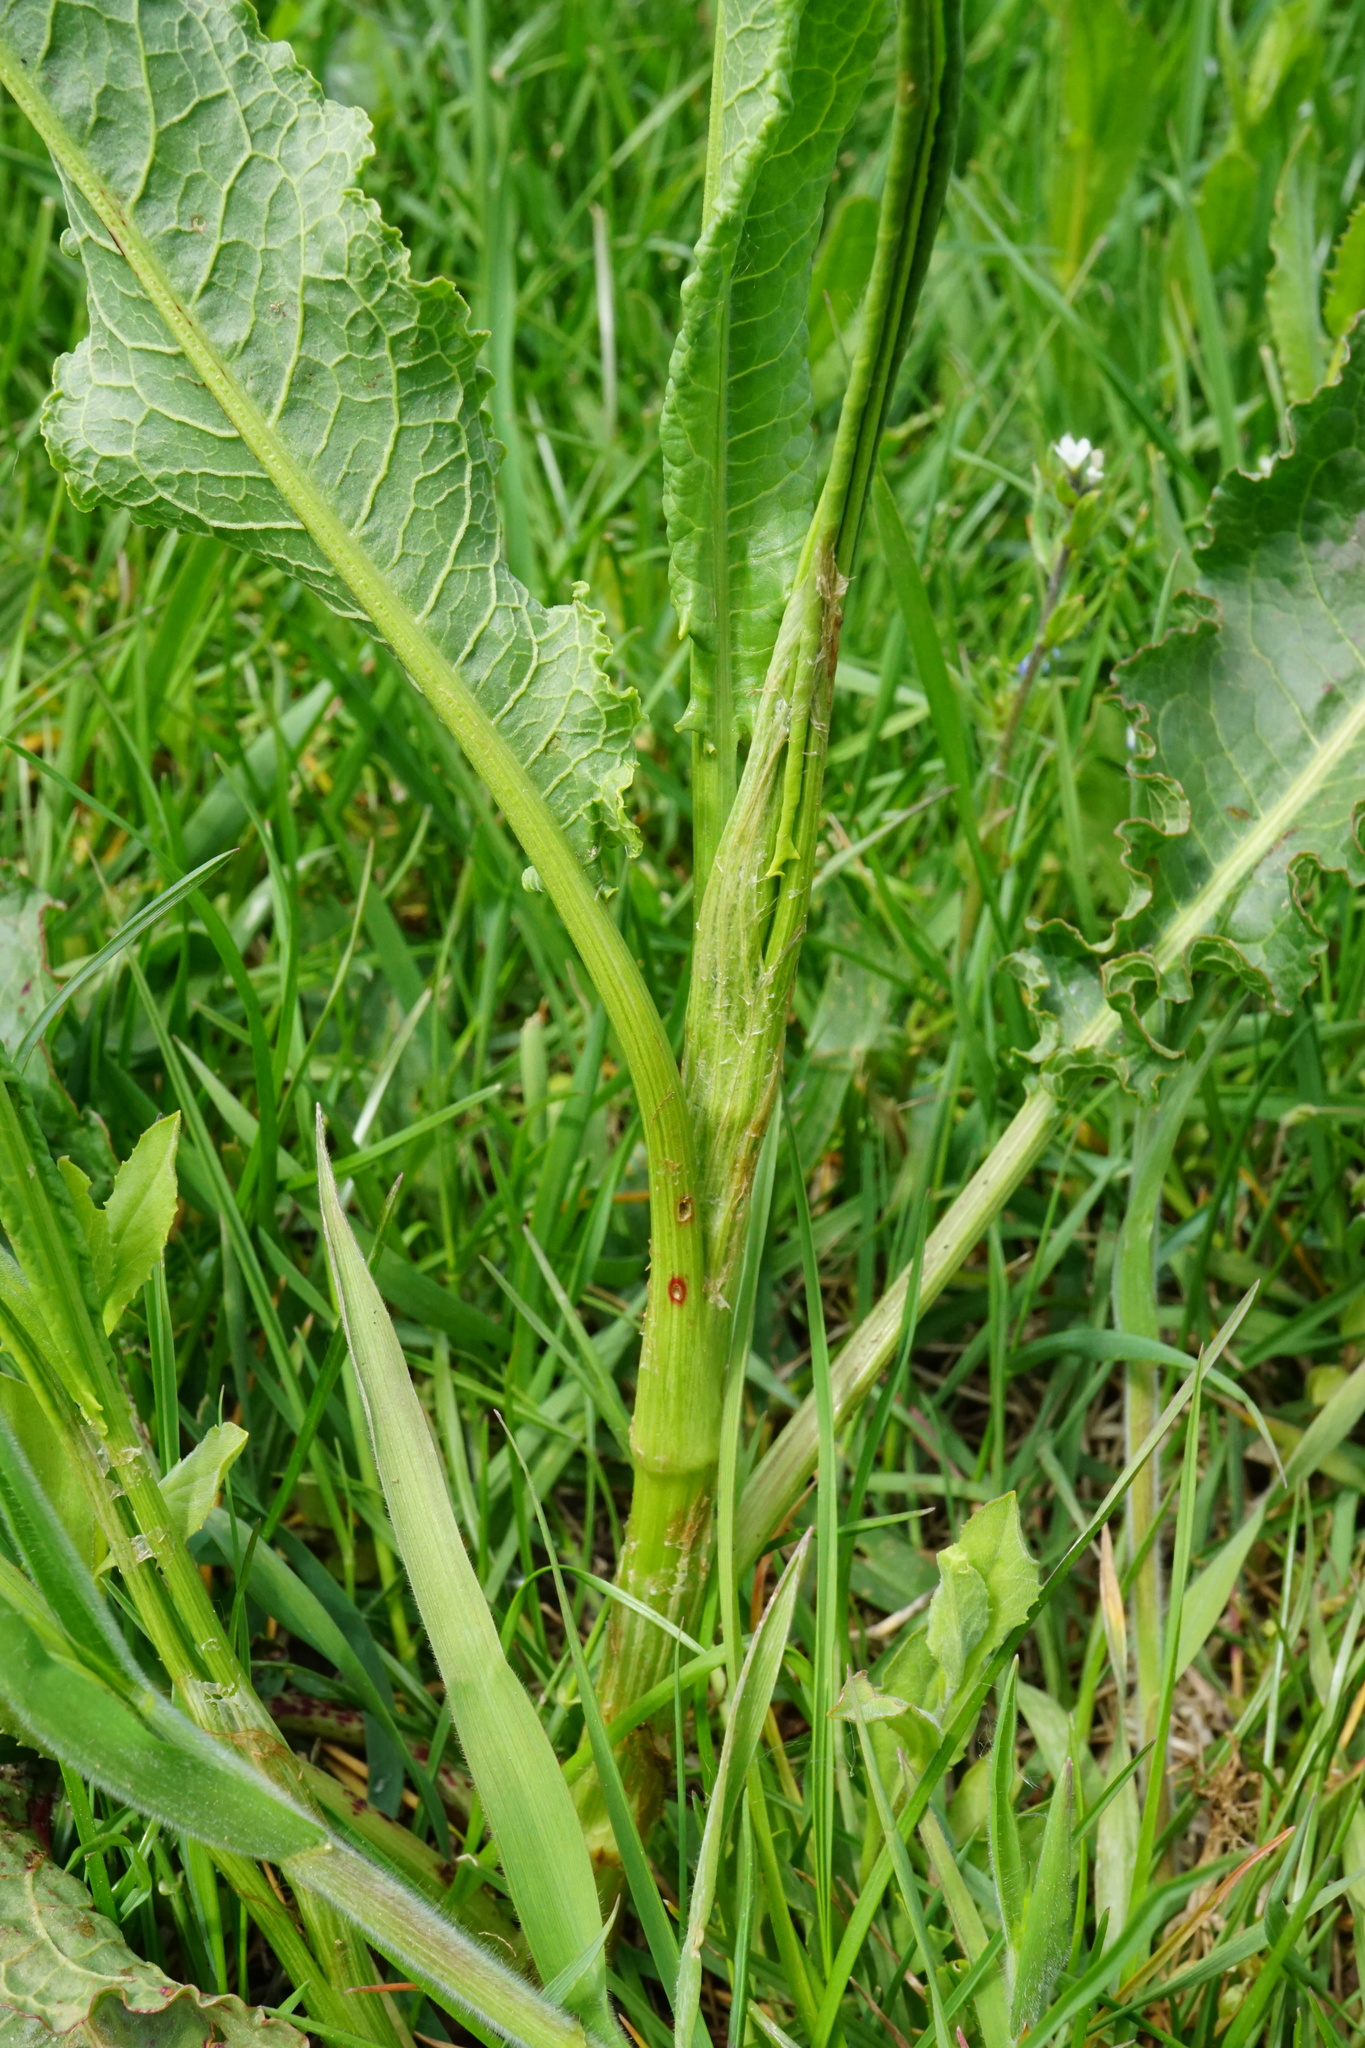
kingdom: Plantae
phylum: Tracheophyta
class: Magnoliopsida
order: Caryophyllales
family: Polygonaceae
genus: Rumex
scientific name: Rumex crispus
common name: Curled dock
